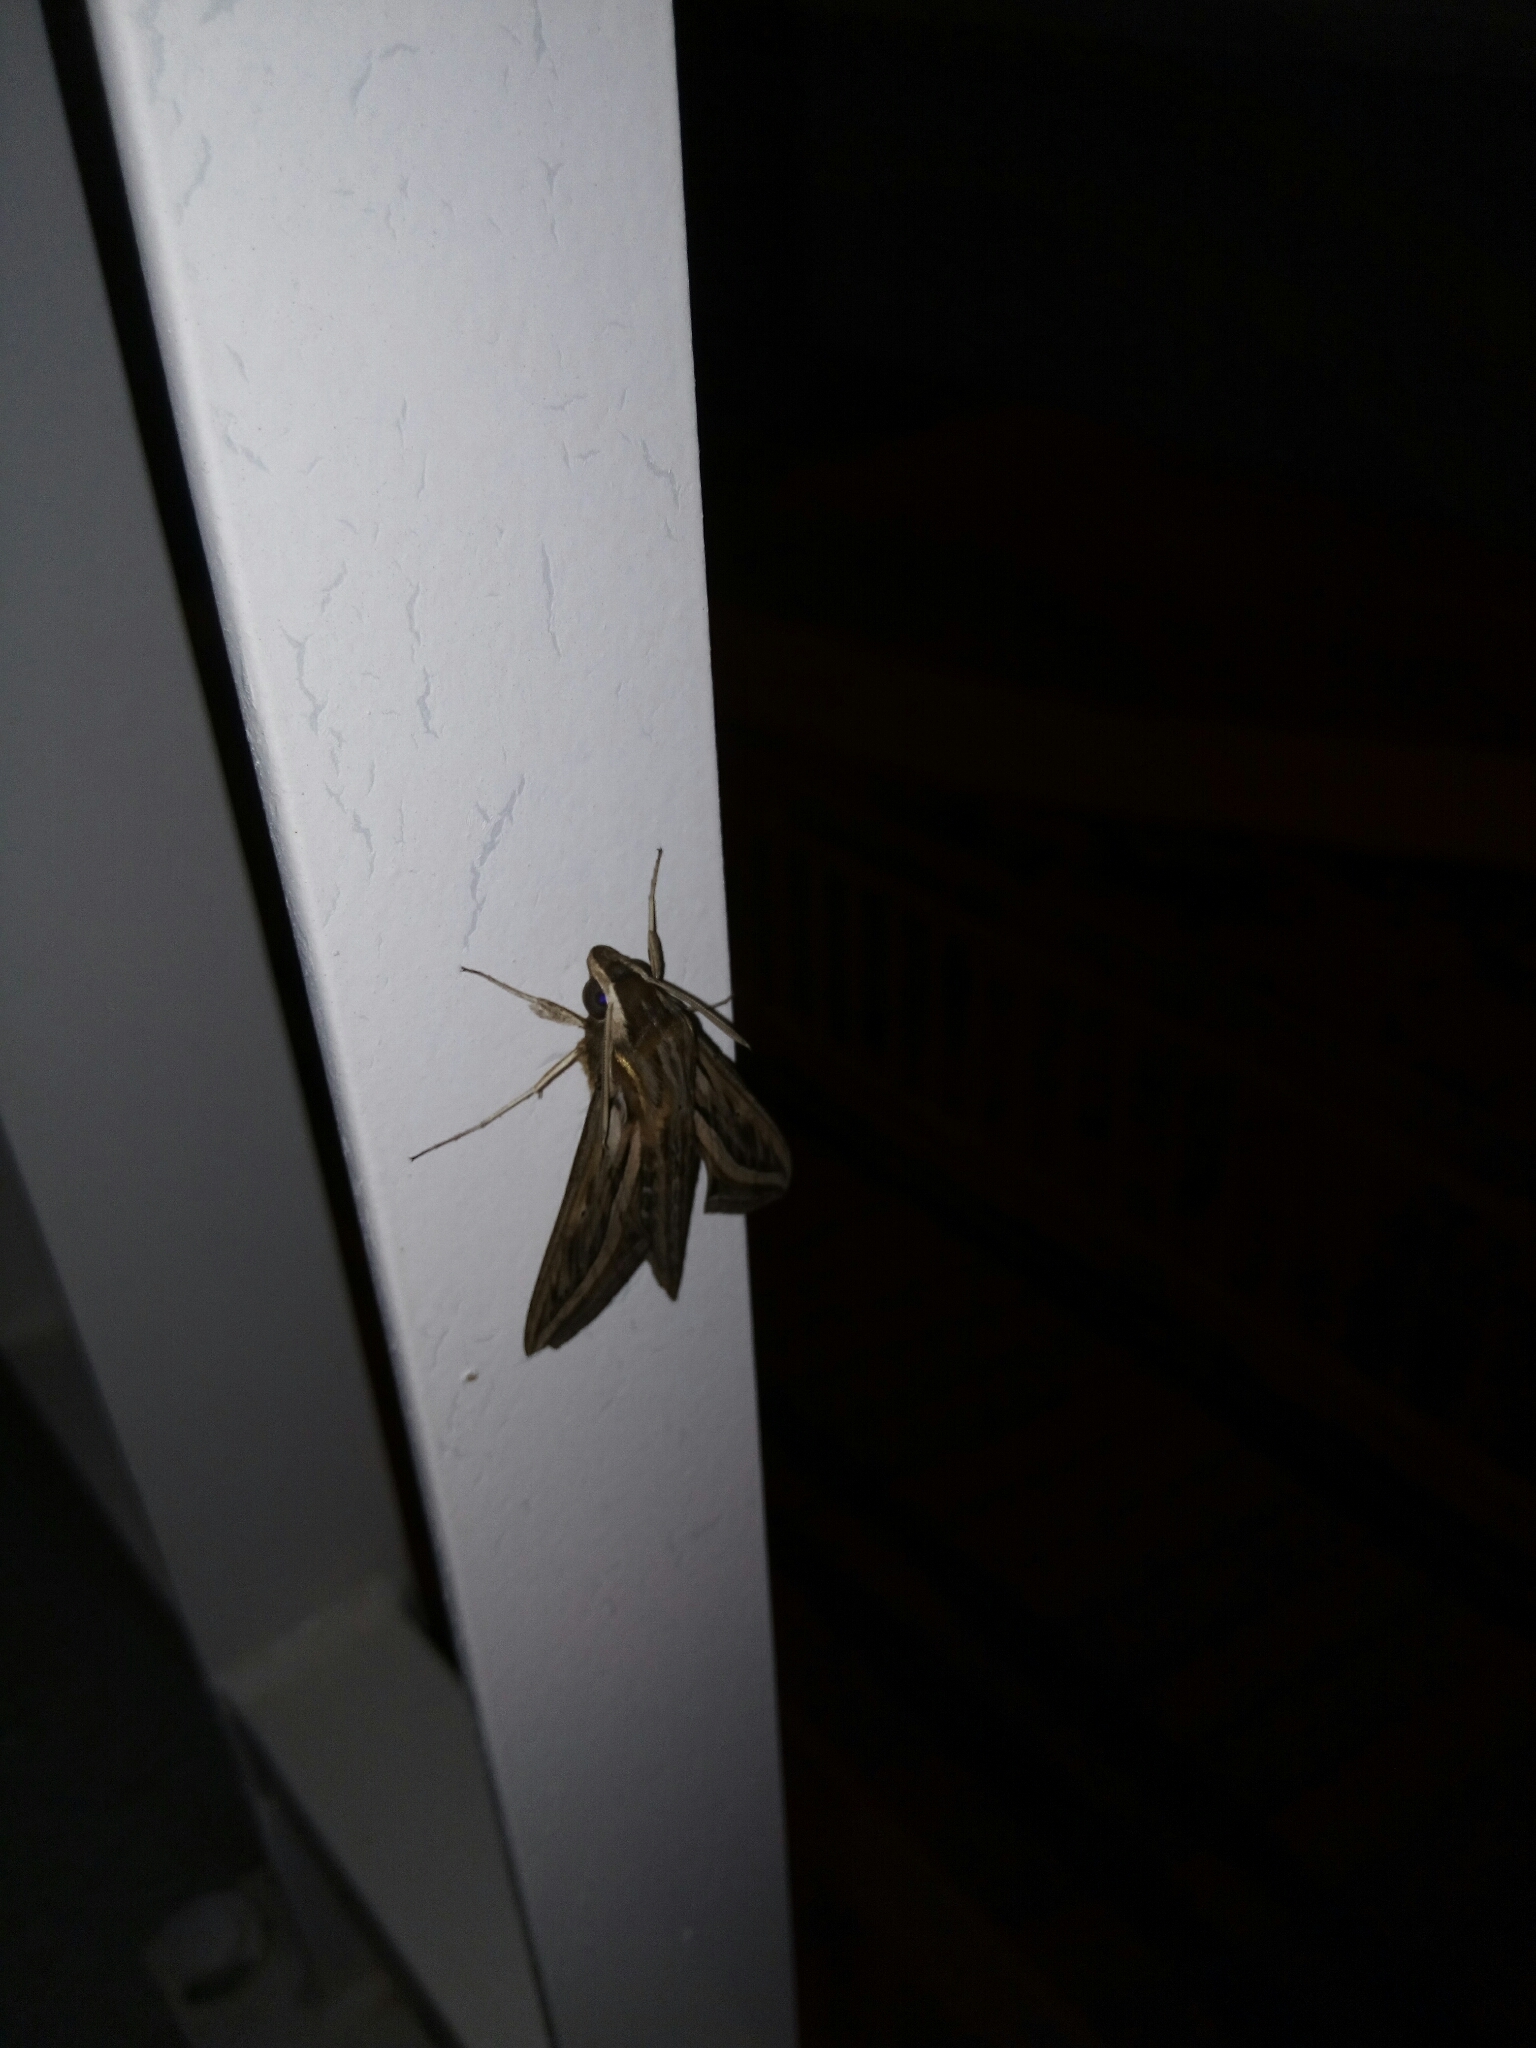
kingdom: Animalia
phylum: Arthropoda
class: Insecta
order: Lepidoptera
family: Sphingidae
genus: Hyles
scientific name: Hyles livornica
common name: Striped hawk-moth
